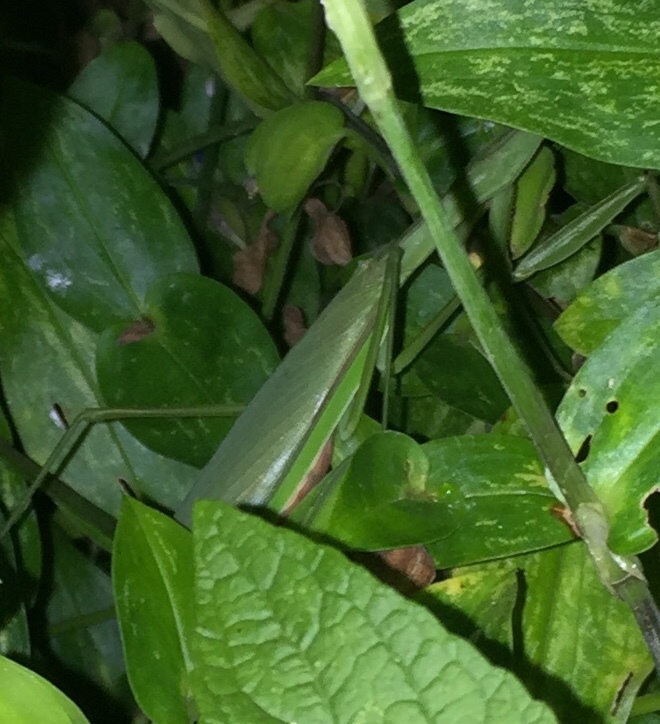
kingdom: Animalia
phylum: Arthropoda
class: Insecta
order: Mantodea
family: Mantidae
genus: Tenodera
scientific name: Tenodera sinensis
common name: Chinese mantis
